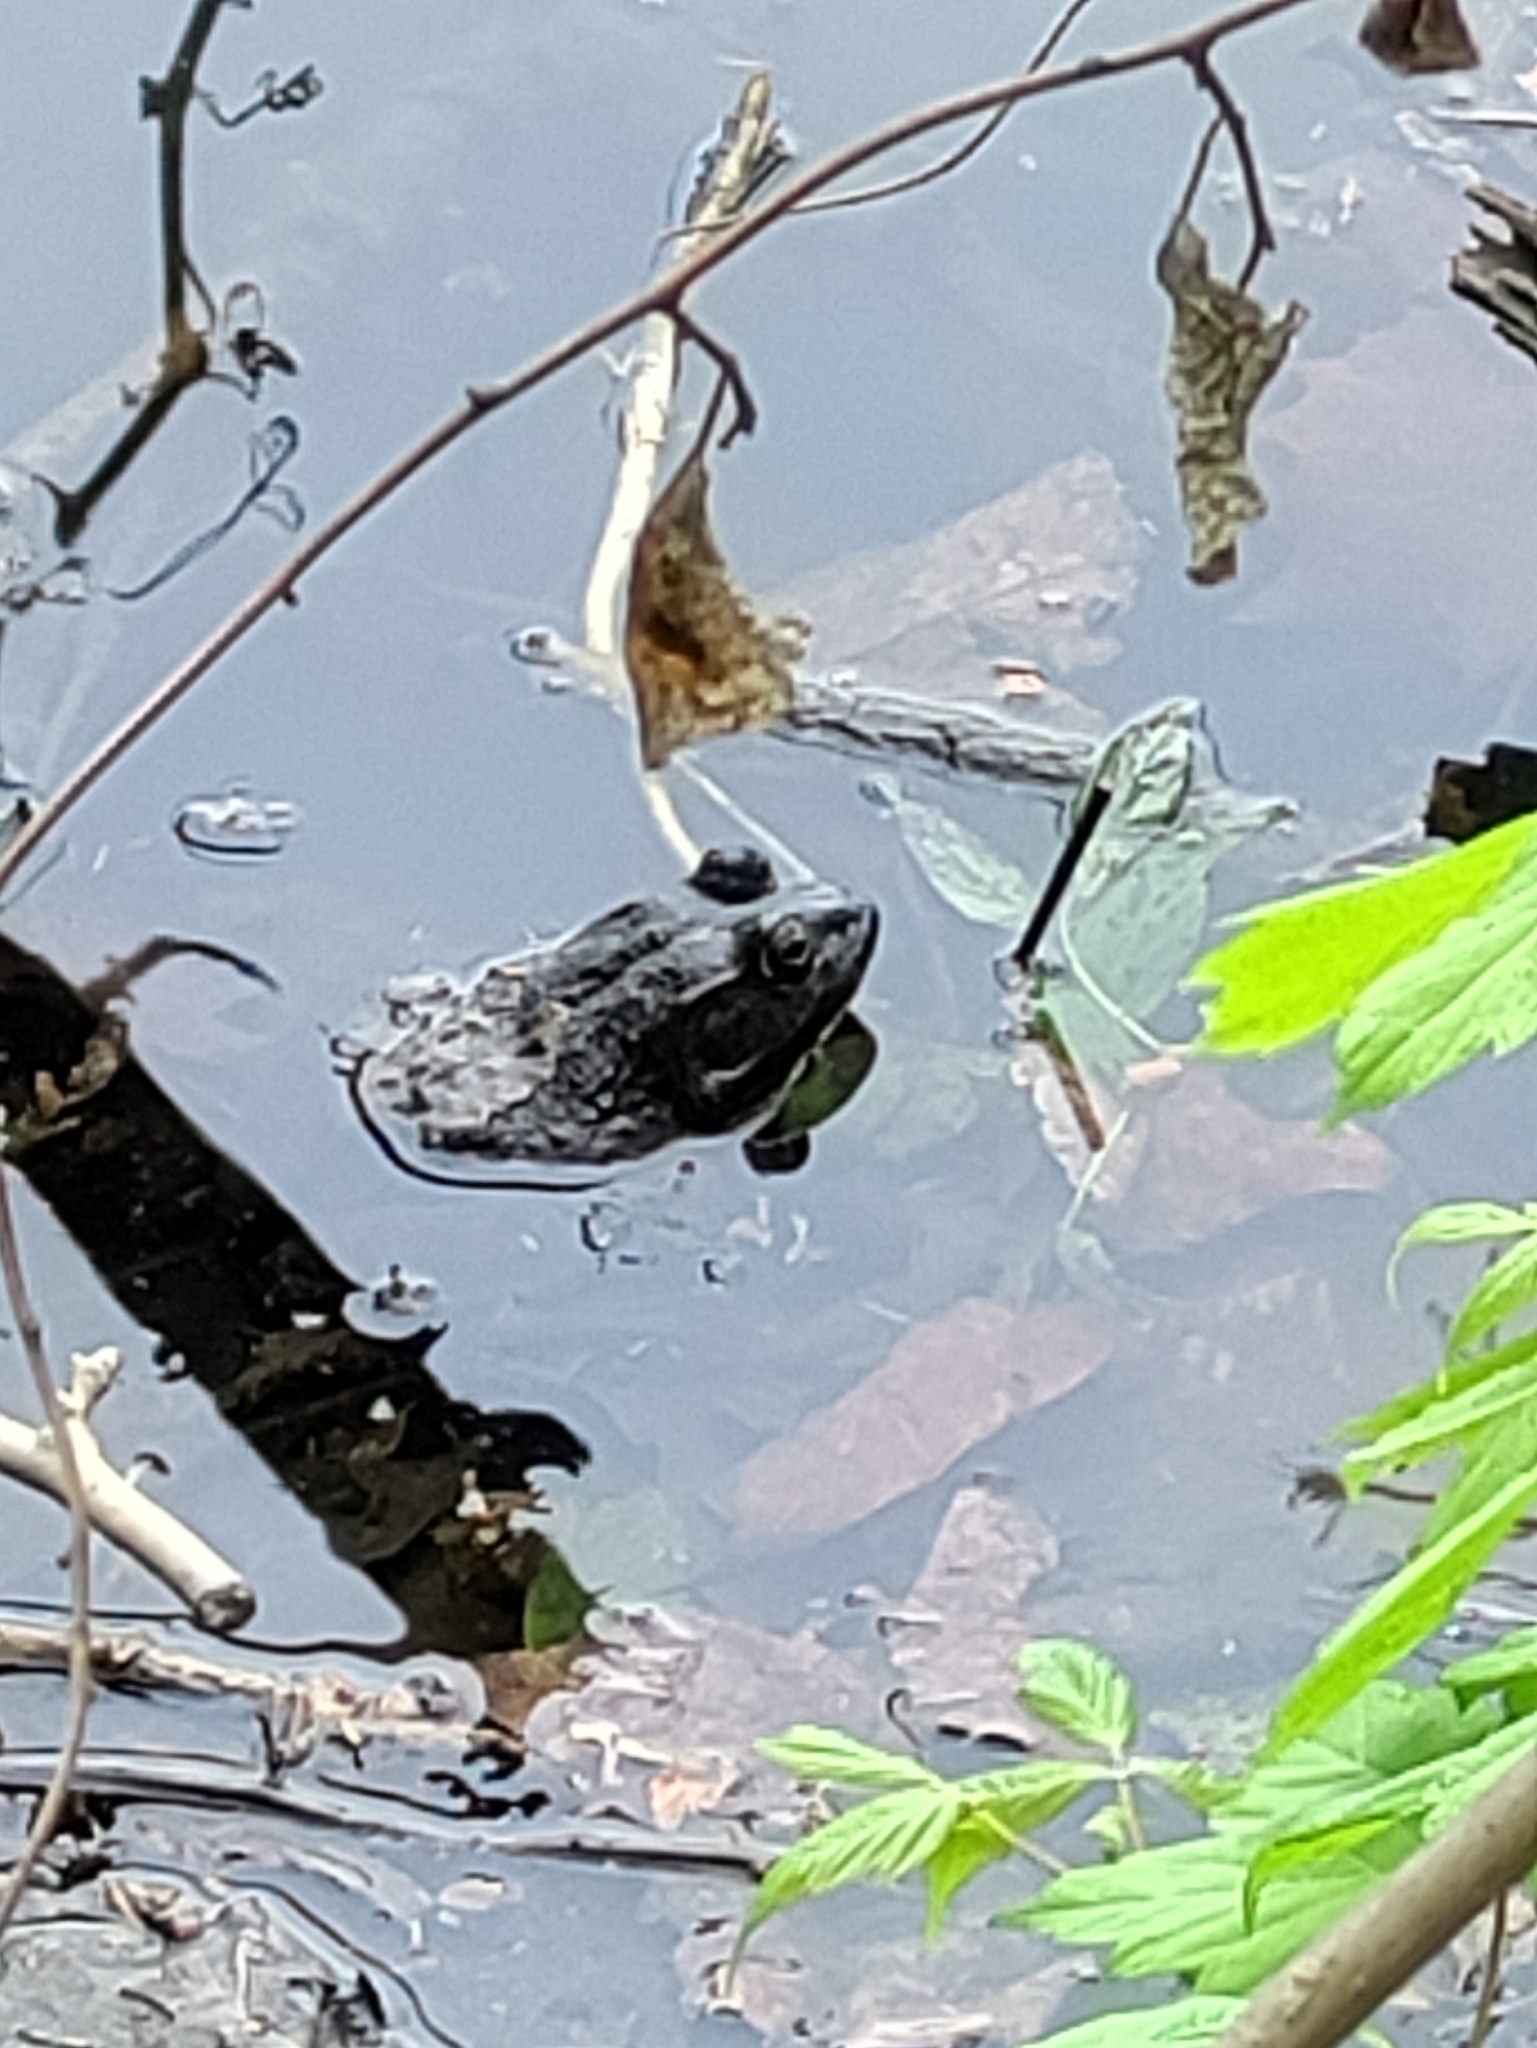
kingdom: Animalia
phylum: Chordata
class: Amphibia
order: Anura
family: Ranidae
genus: Lithobates
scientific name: Lithobates catesbeianus
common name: American bullfrog
